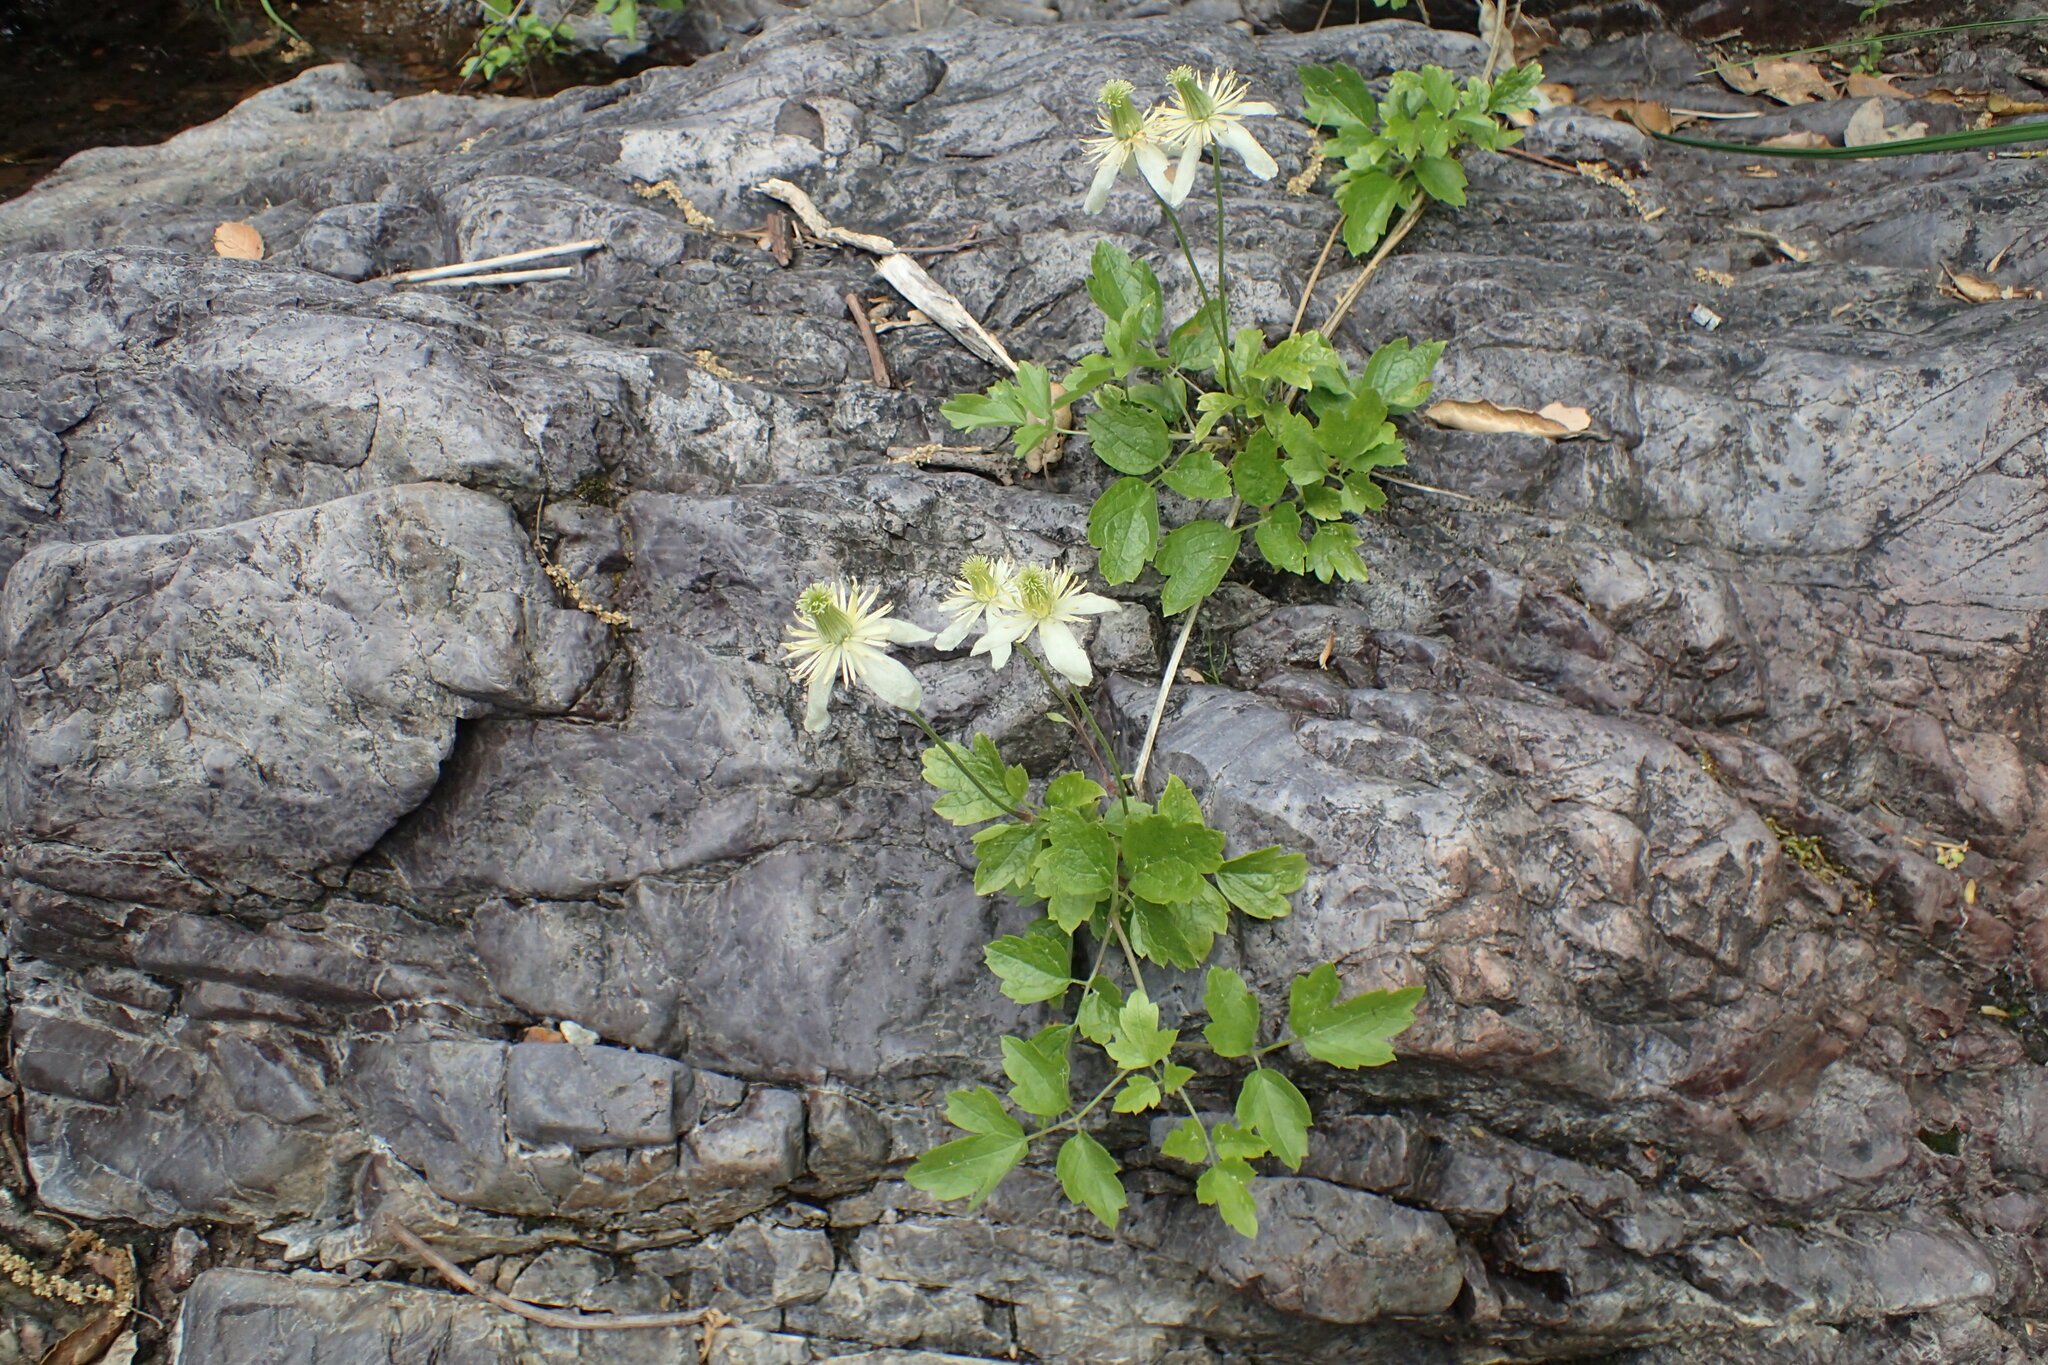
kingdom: Plantae
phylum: Tracheophyta
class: Magnoliopsida
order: Ranunculales
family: Ranunculaceae
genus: Clematis
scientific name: Clematis lasiantha
